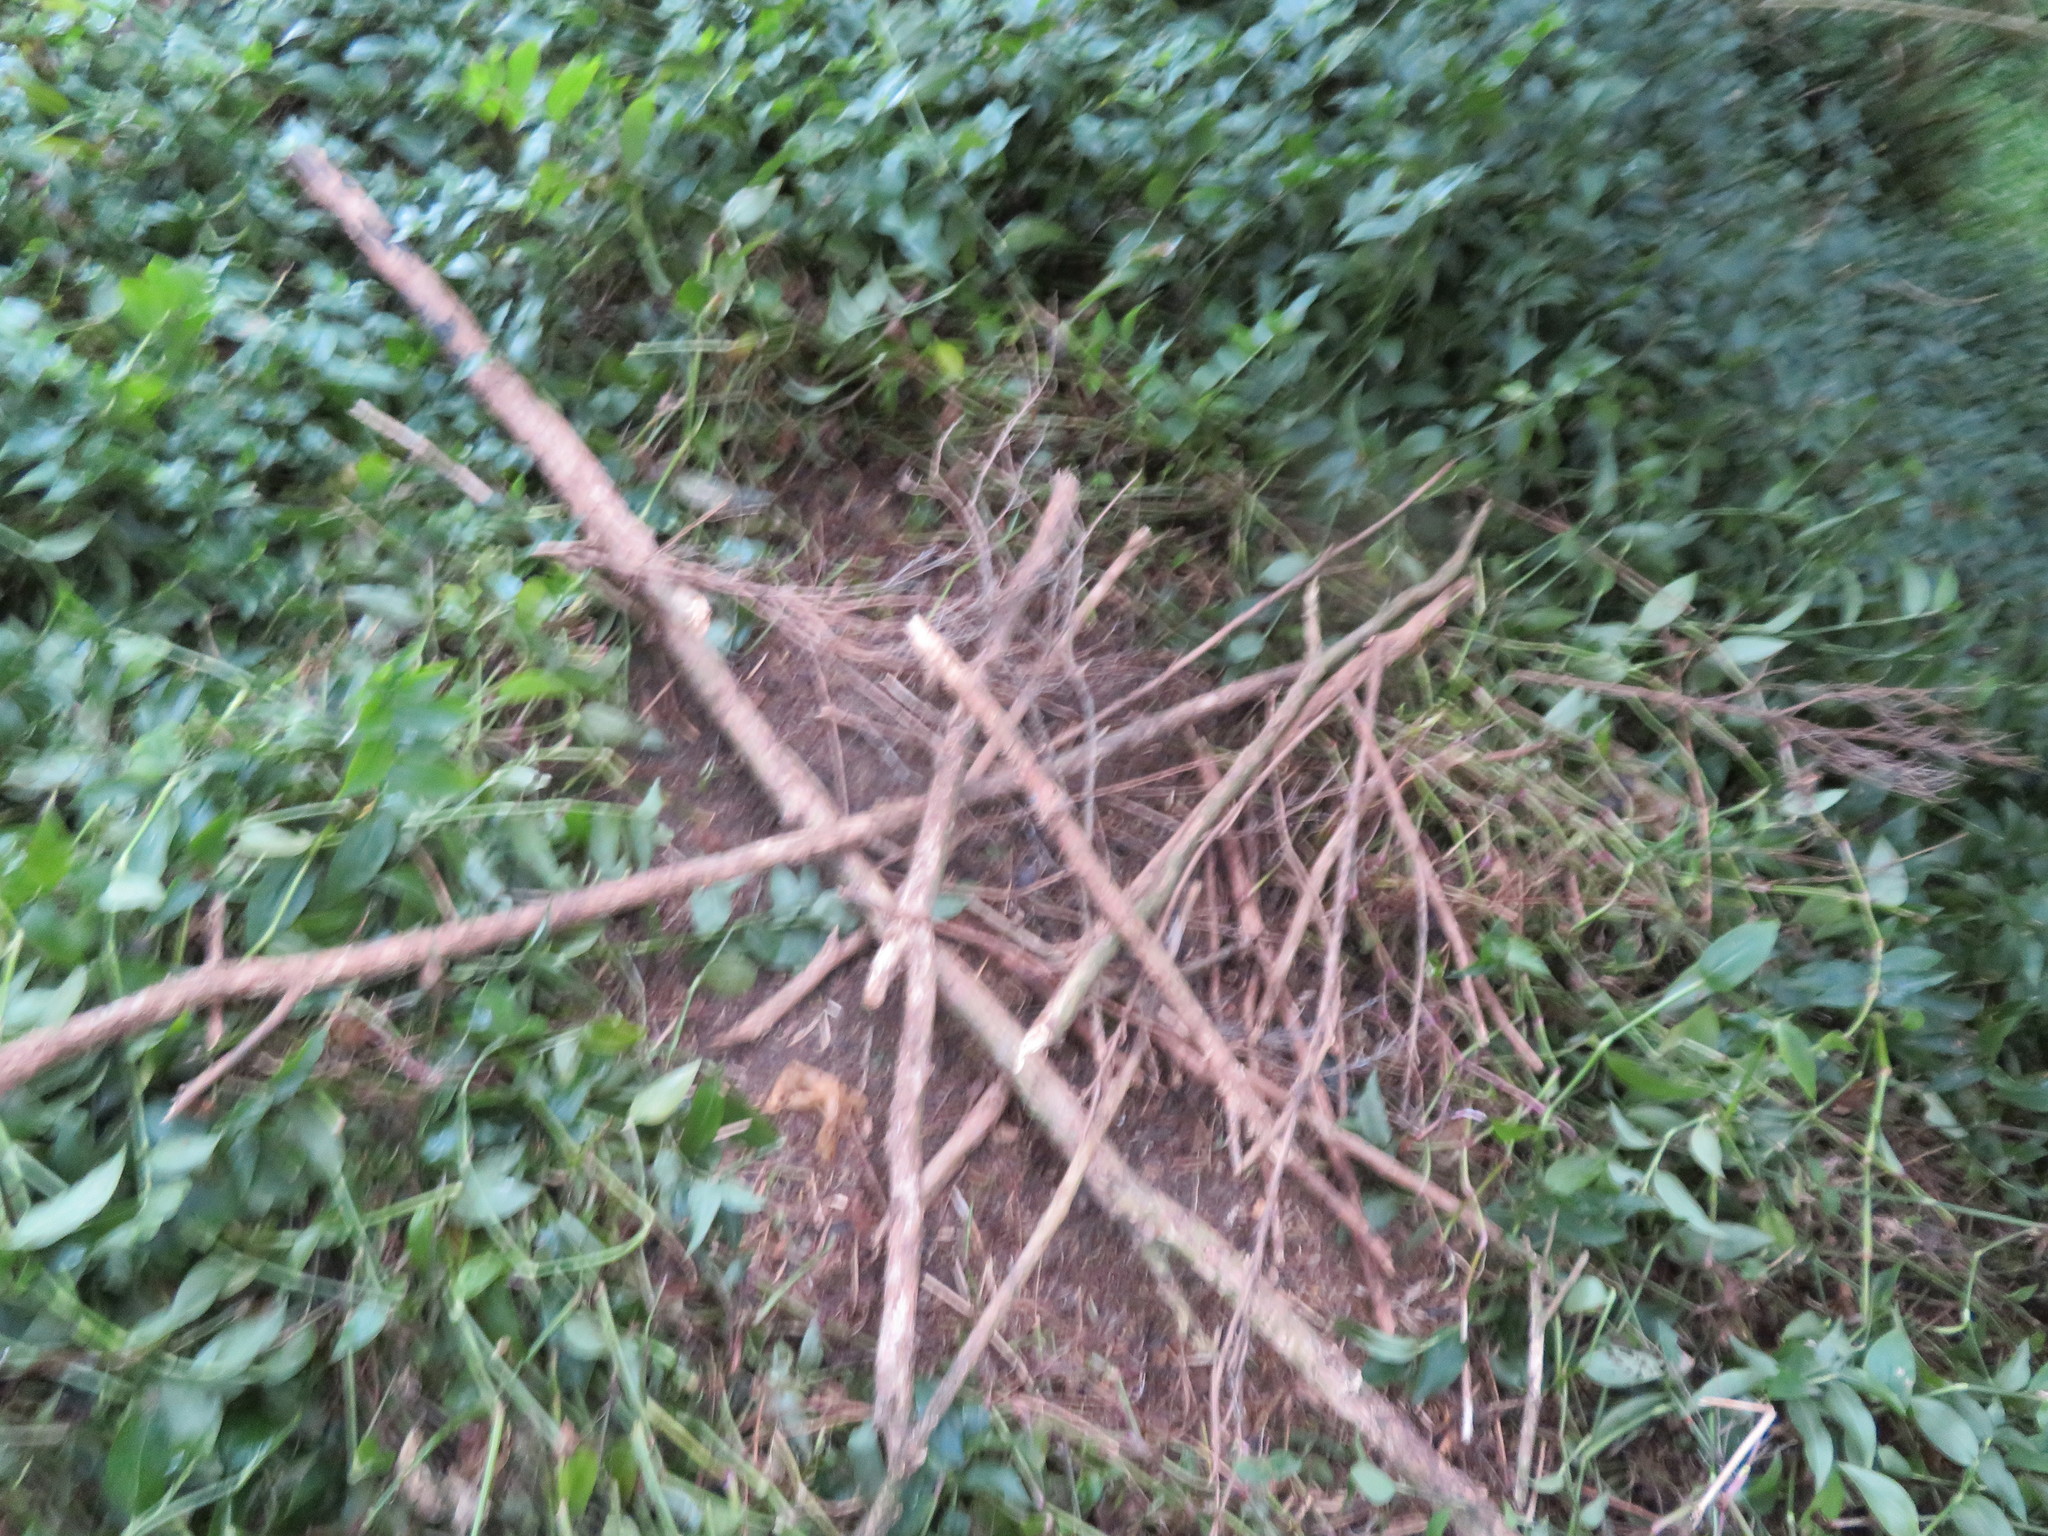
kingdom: Plantae
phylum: Tracheophyta
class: Liliopsida
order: Commelinales
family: Commelinaceae
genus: Tradescantia
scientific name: Tradescantia fluminensis
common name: Wandering-jew
